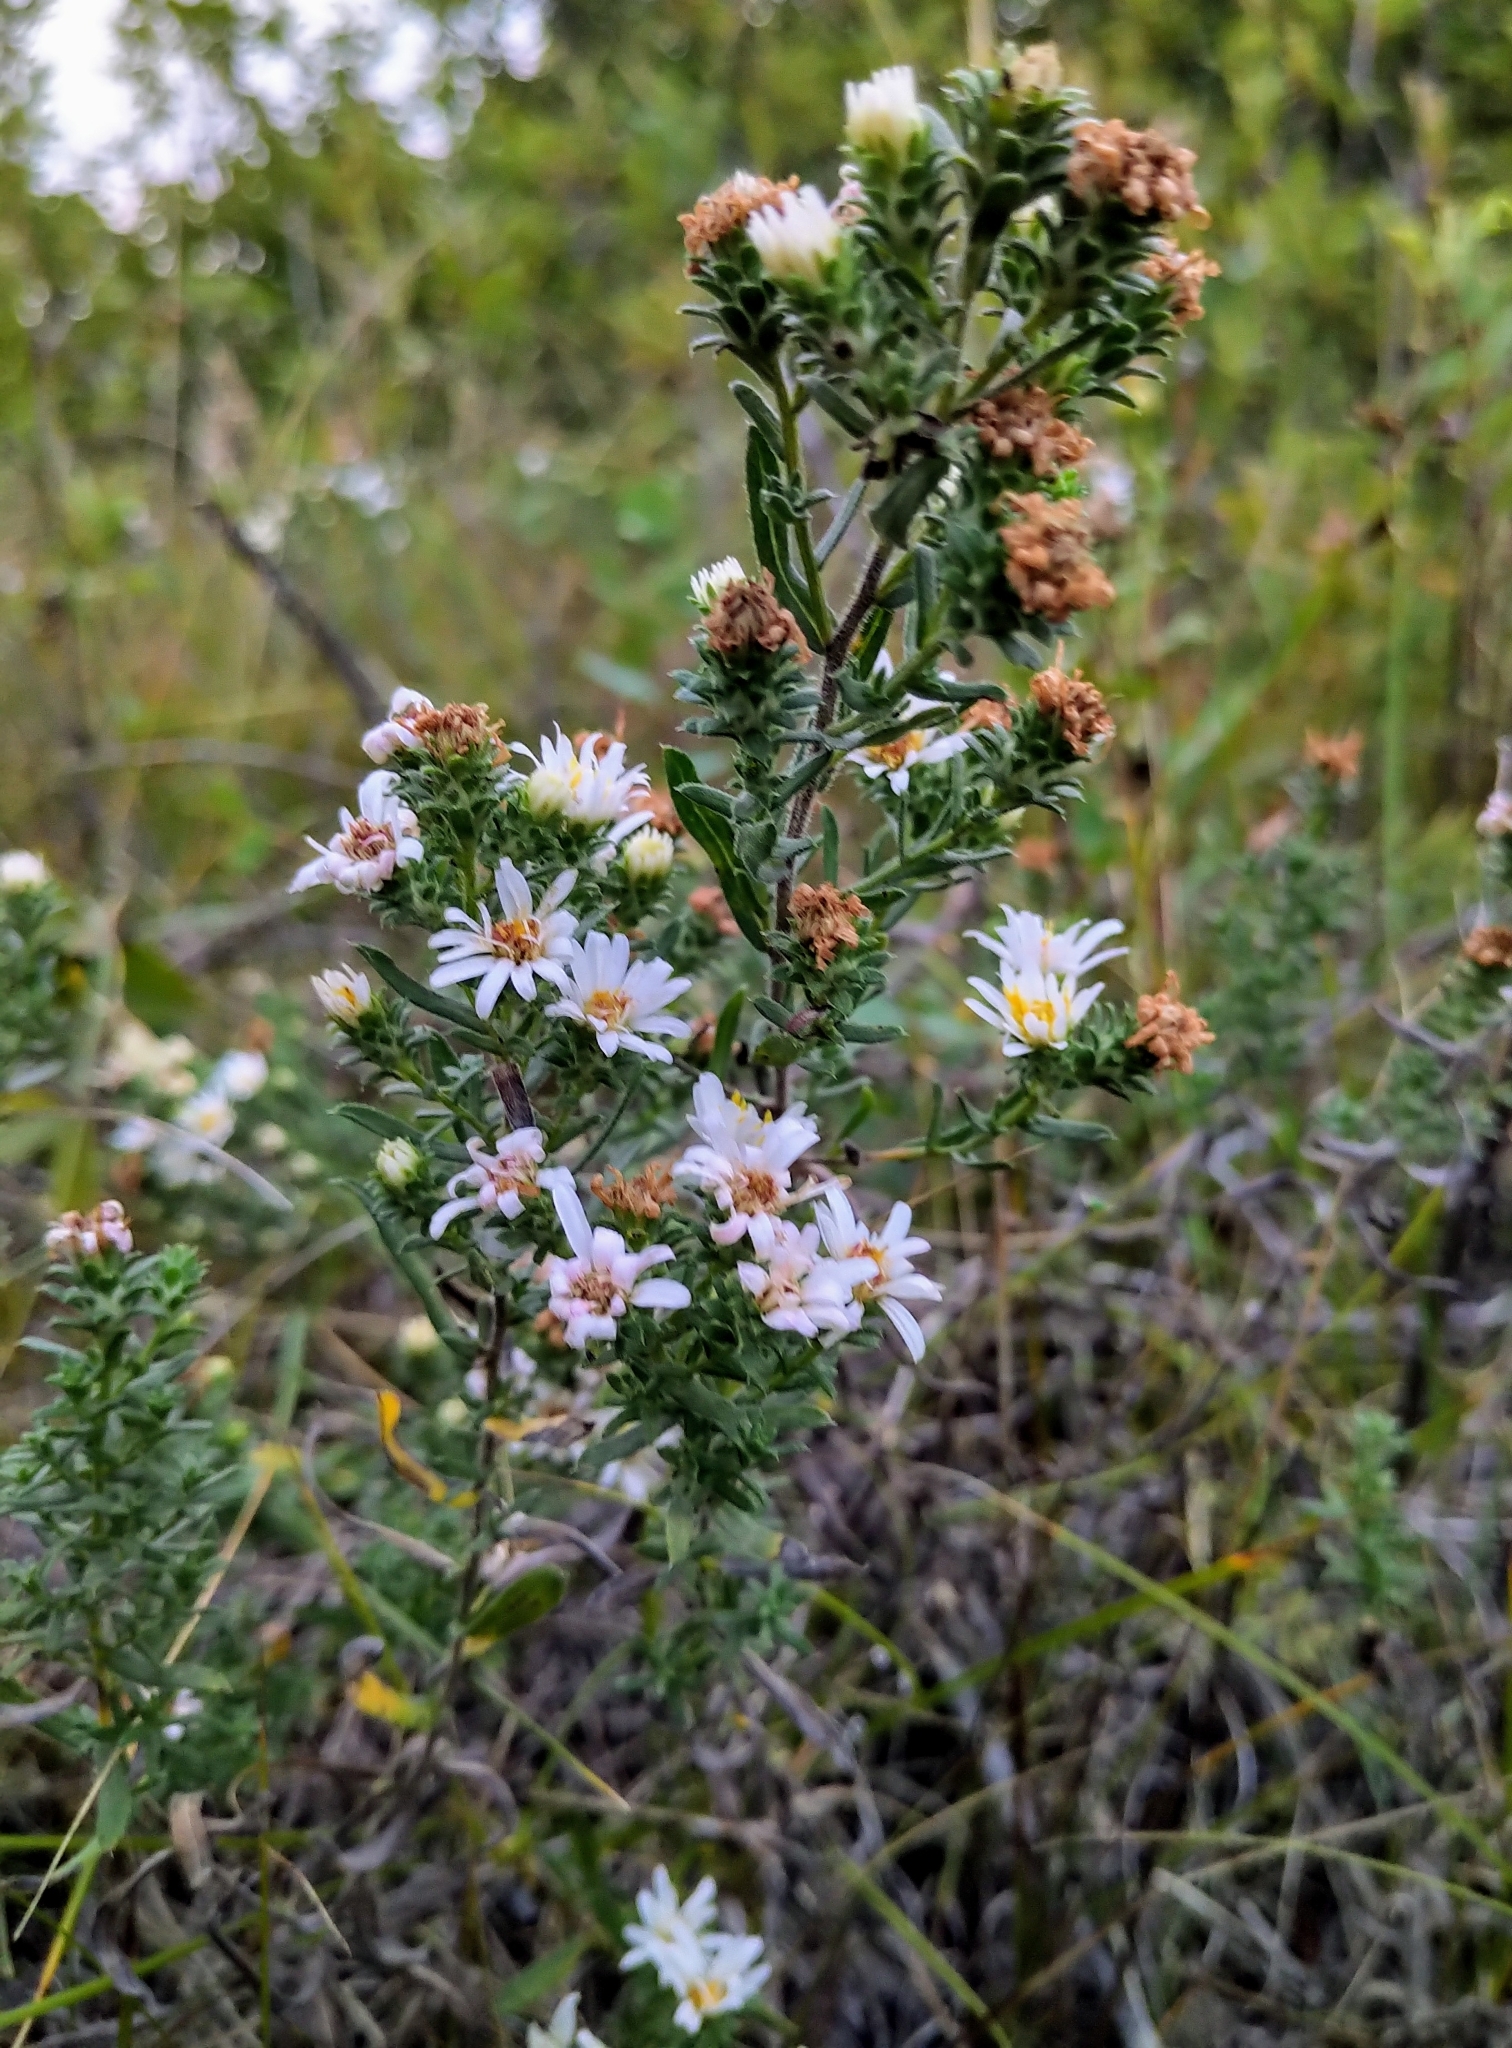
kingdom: Plantae
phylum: Tracheophyta
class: Magnoliopsida
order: Asterales
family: Asteraceae
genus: Symphyotrichum
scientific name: Symphyotrichum ericoides
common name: Heath aster
